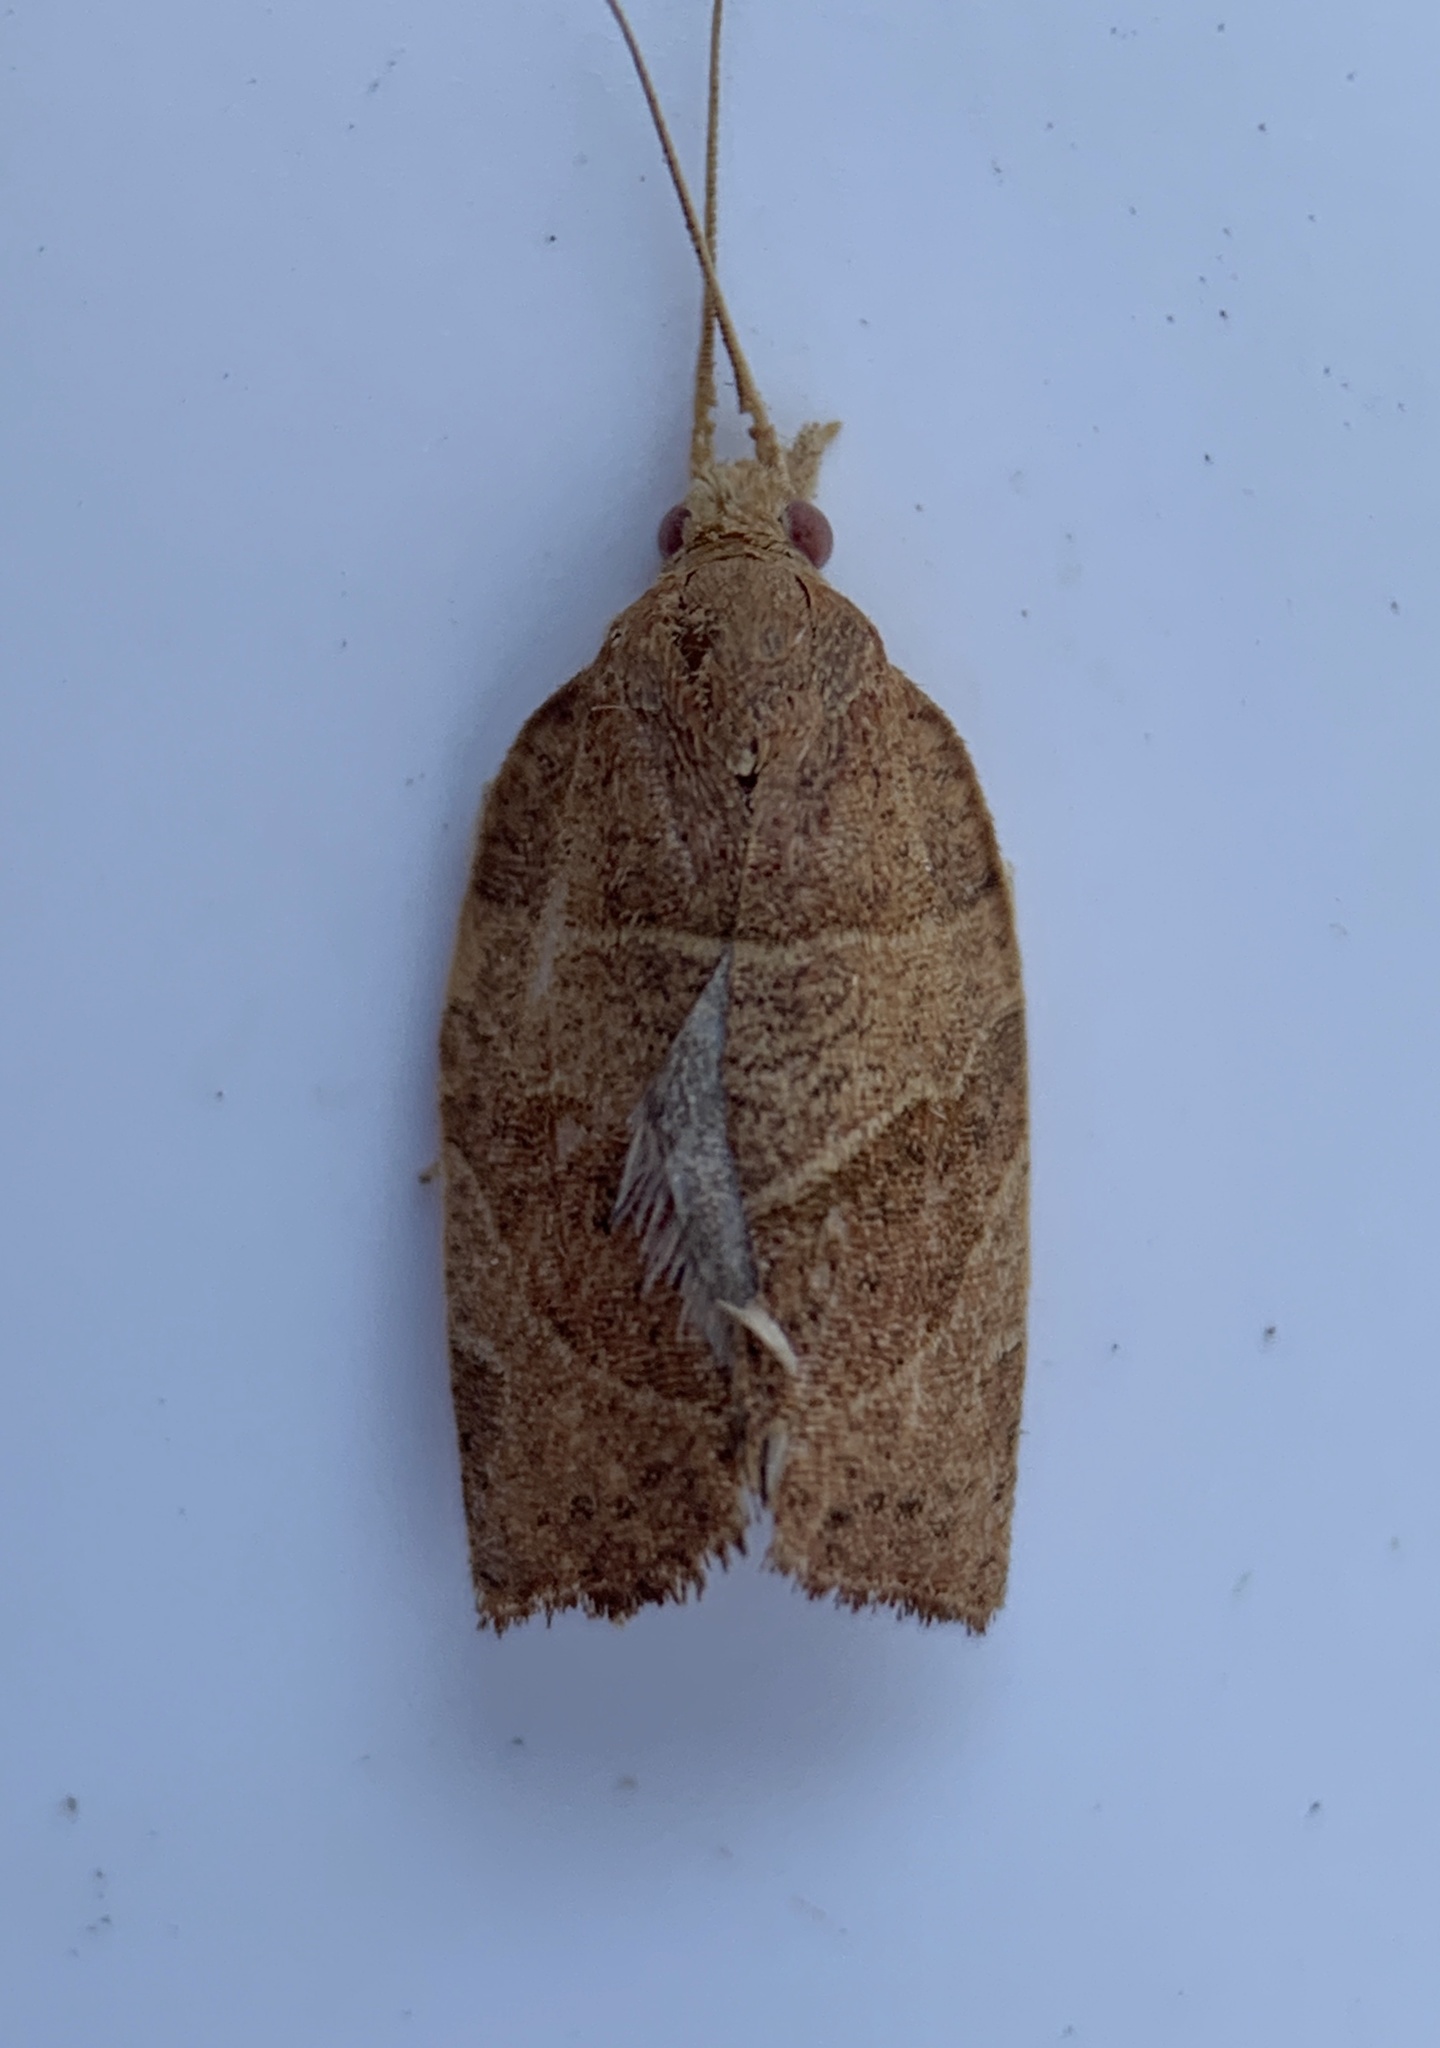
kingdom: Animalia
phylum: Arthropoda
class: Insecta
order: Lepidoptera
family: Tortricidae
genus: Pandemis
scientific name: Pandemis limitata
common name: Three-lined leafroller moth
